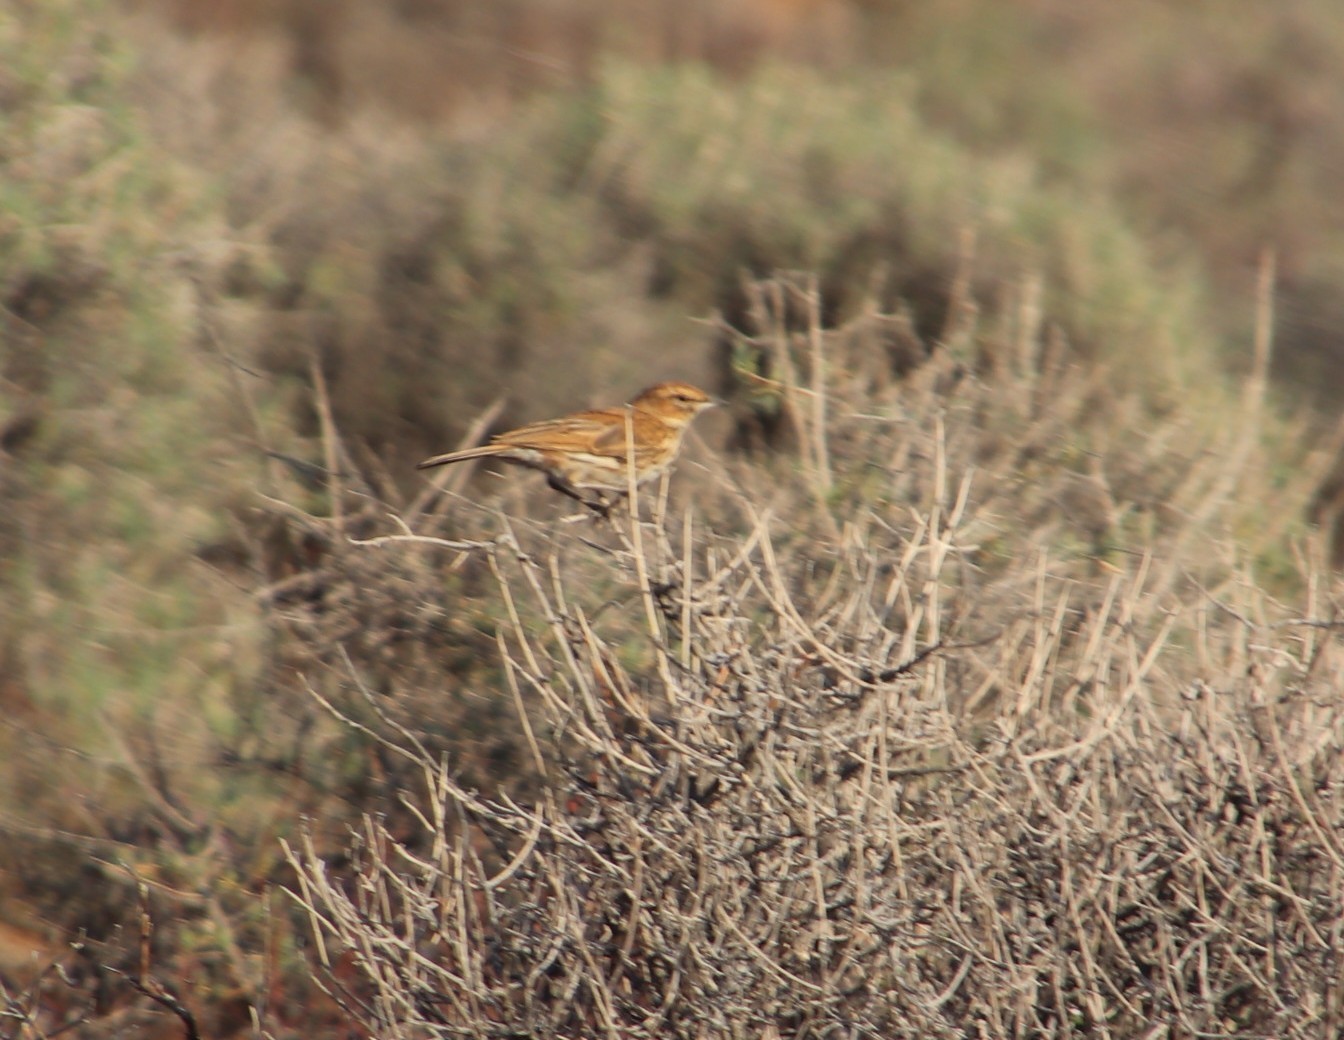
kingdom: Animalia
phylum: Chordata
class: Aves
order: Passeriformes
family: Alaudidae
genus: Calendulauda
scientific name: Calendulauda albescens
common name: Karoo lark
